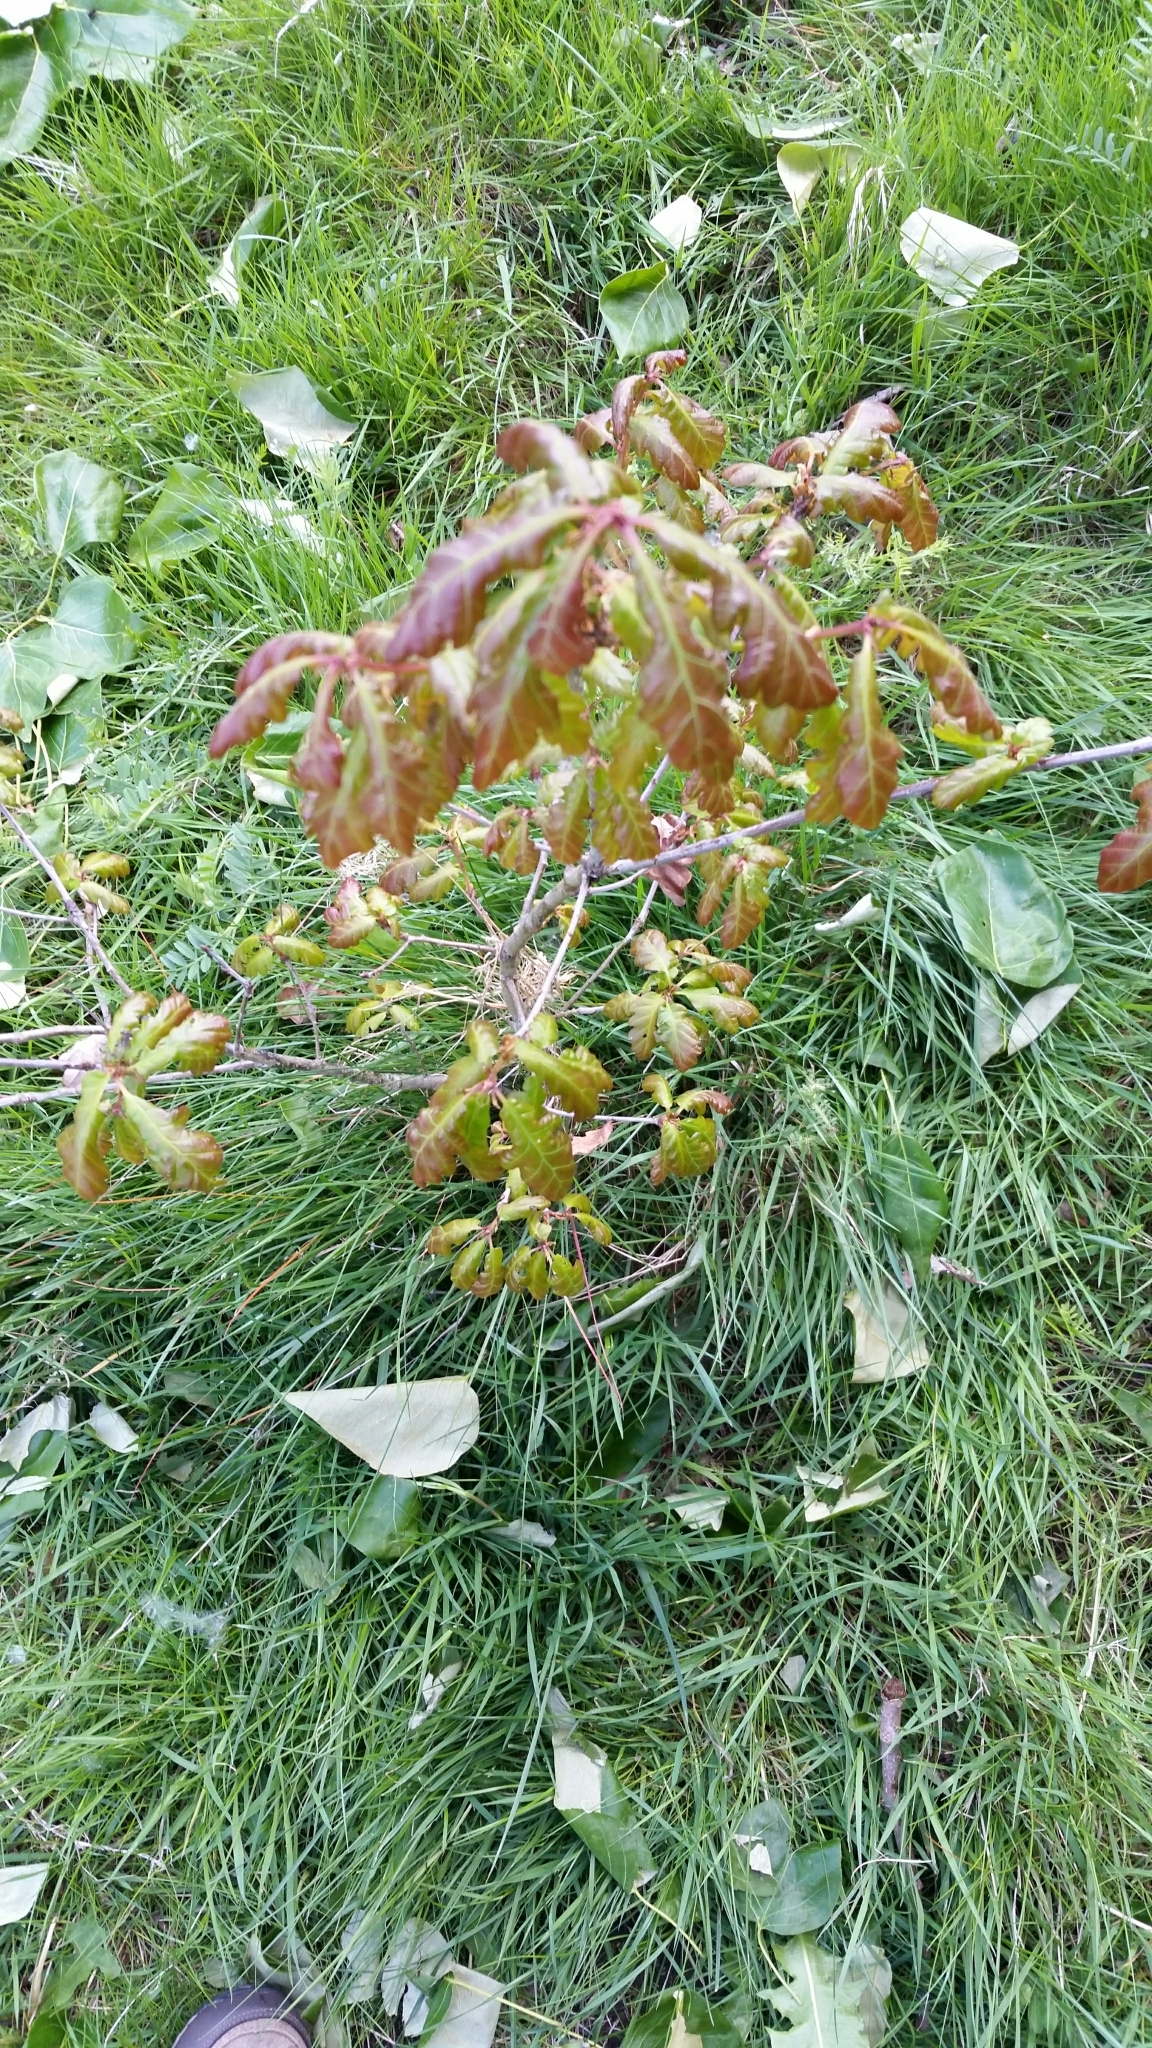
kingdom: Plantae
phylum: Tracheophyta
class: Magnoliopsida
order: Fagales
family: Fagaceae
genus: Quercus
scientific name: Quercus robur
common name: Pedunculate oak
